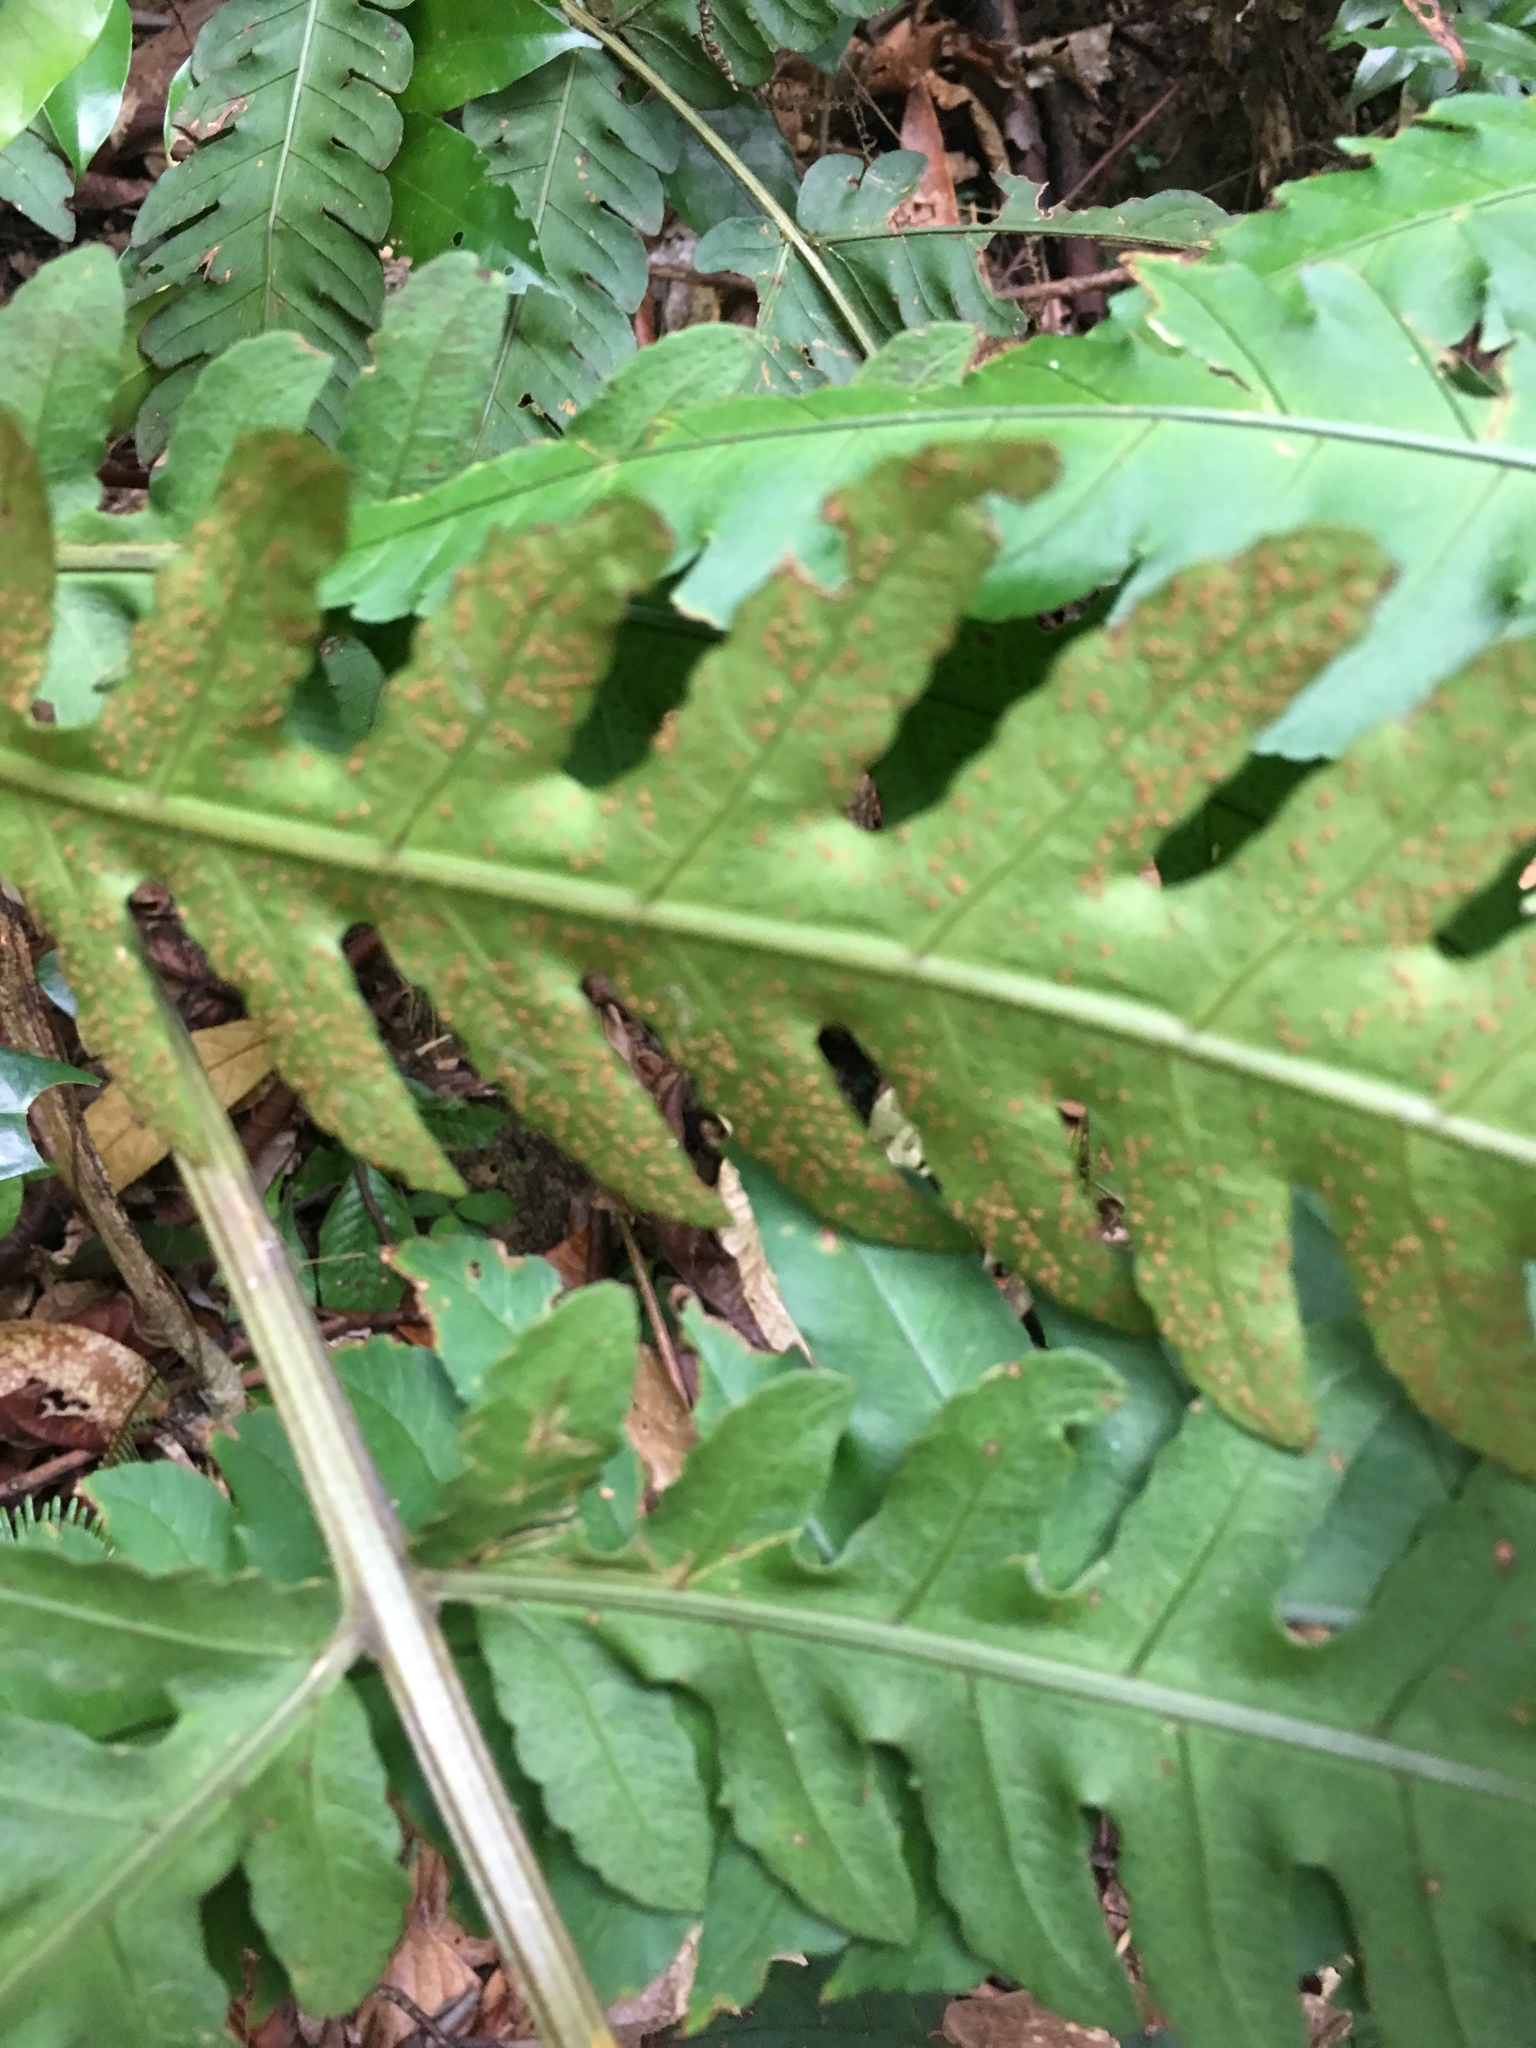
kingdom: Plantae
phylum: Tracheophyta
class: Polypodiopsida
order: Polypodiales
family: Dryopteridaceae
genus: Pleocnemia
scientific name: Pleocnemia irregularis
